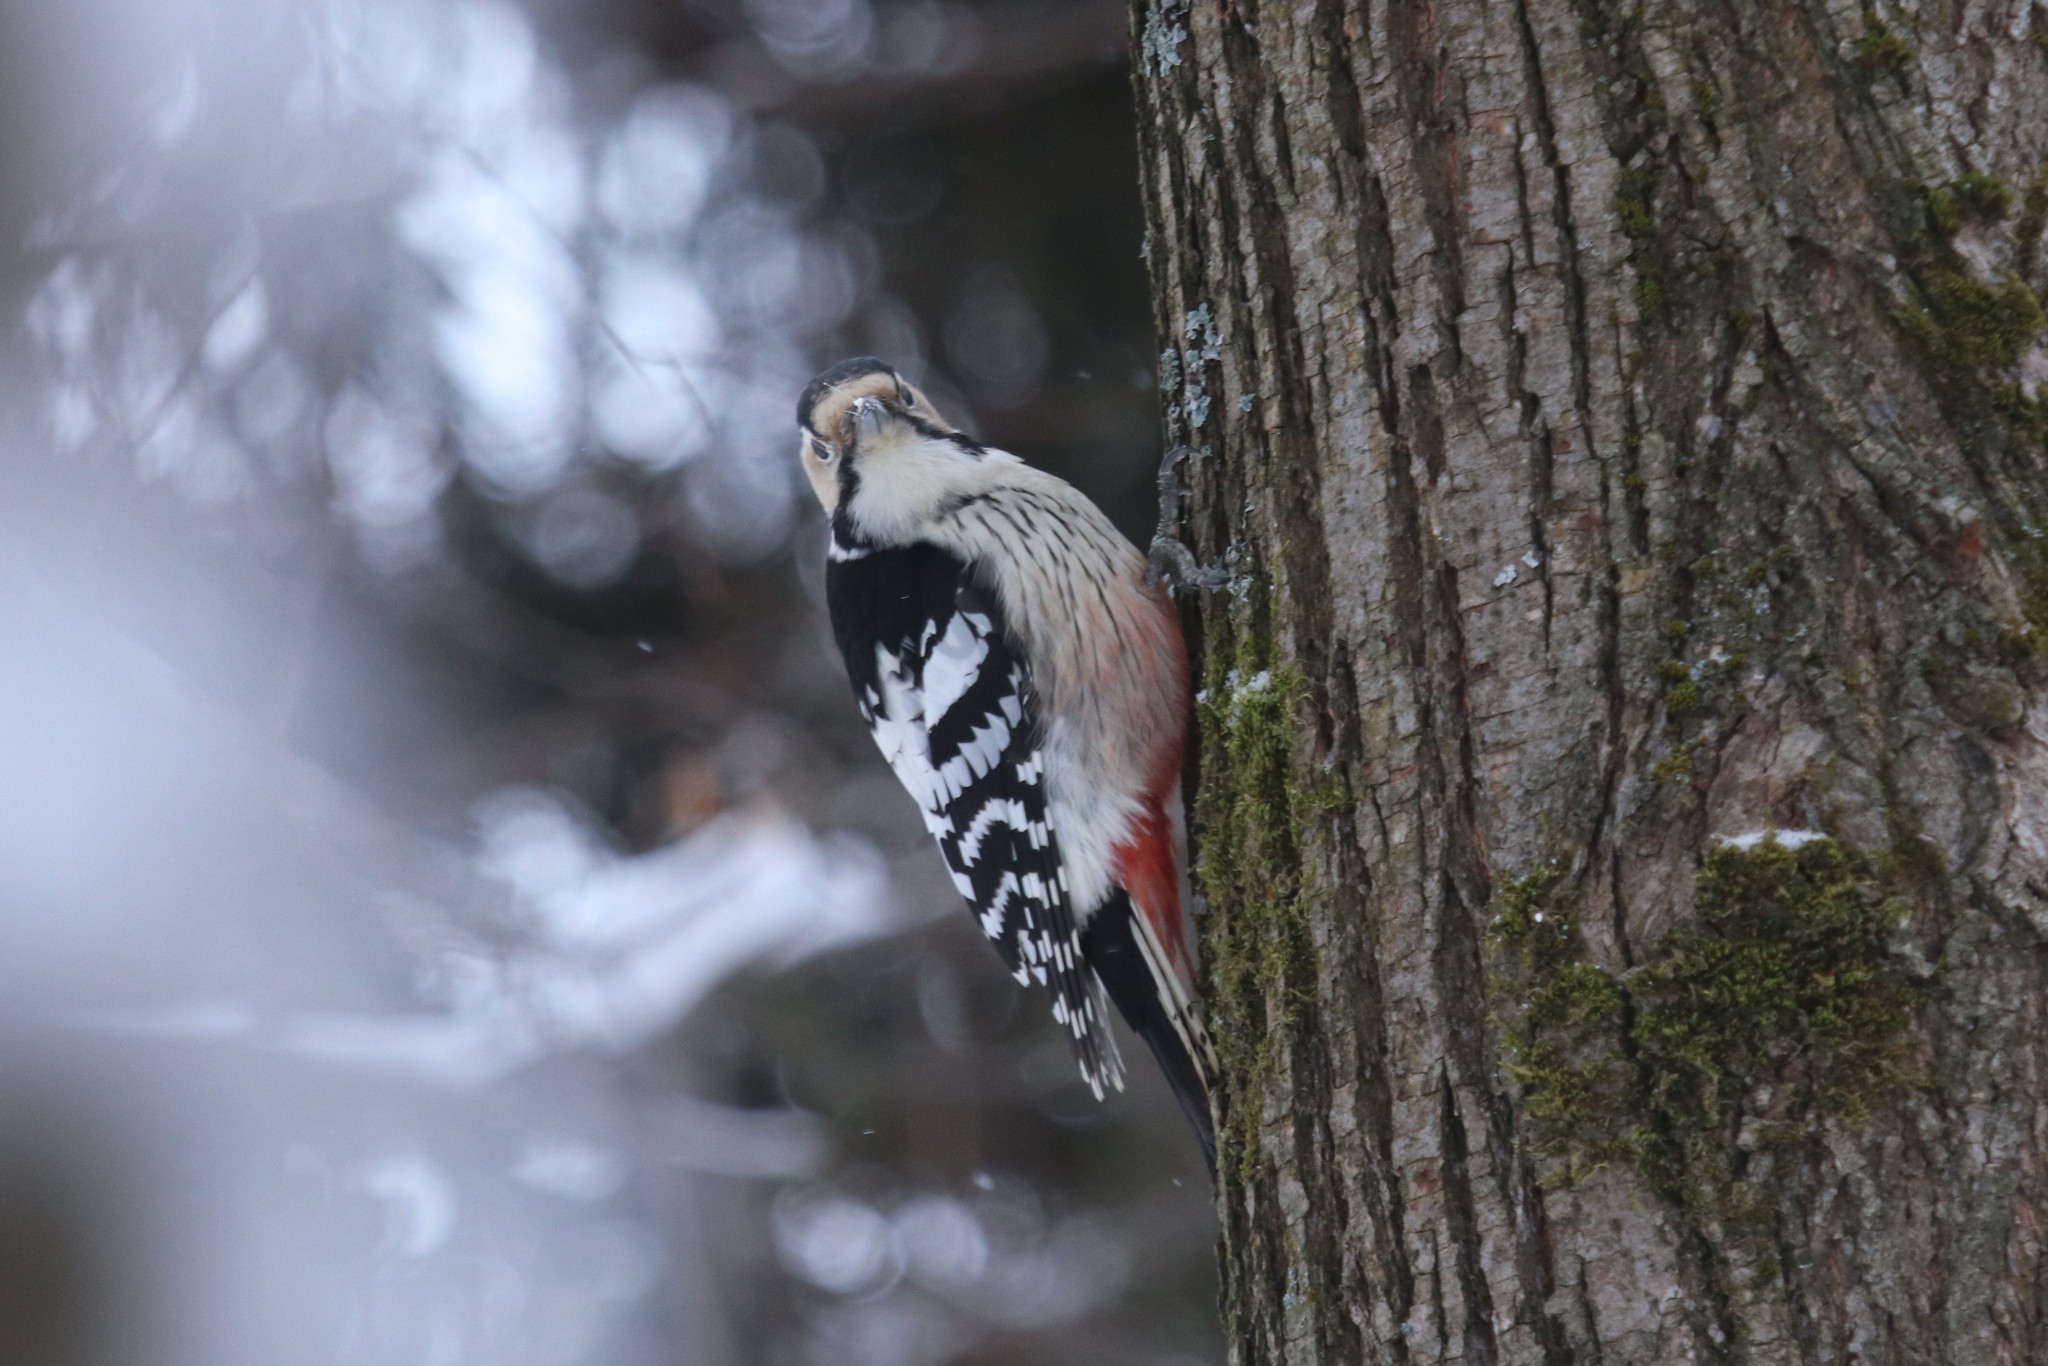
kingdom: Animalia
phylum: Chordata
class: Aves
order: Piciformes
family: Picidae
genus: Dendrocopos
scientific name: Dendrocopos leucotos
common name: White-backed woodpecker
